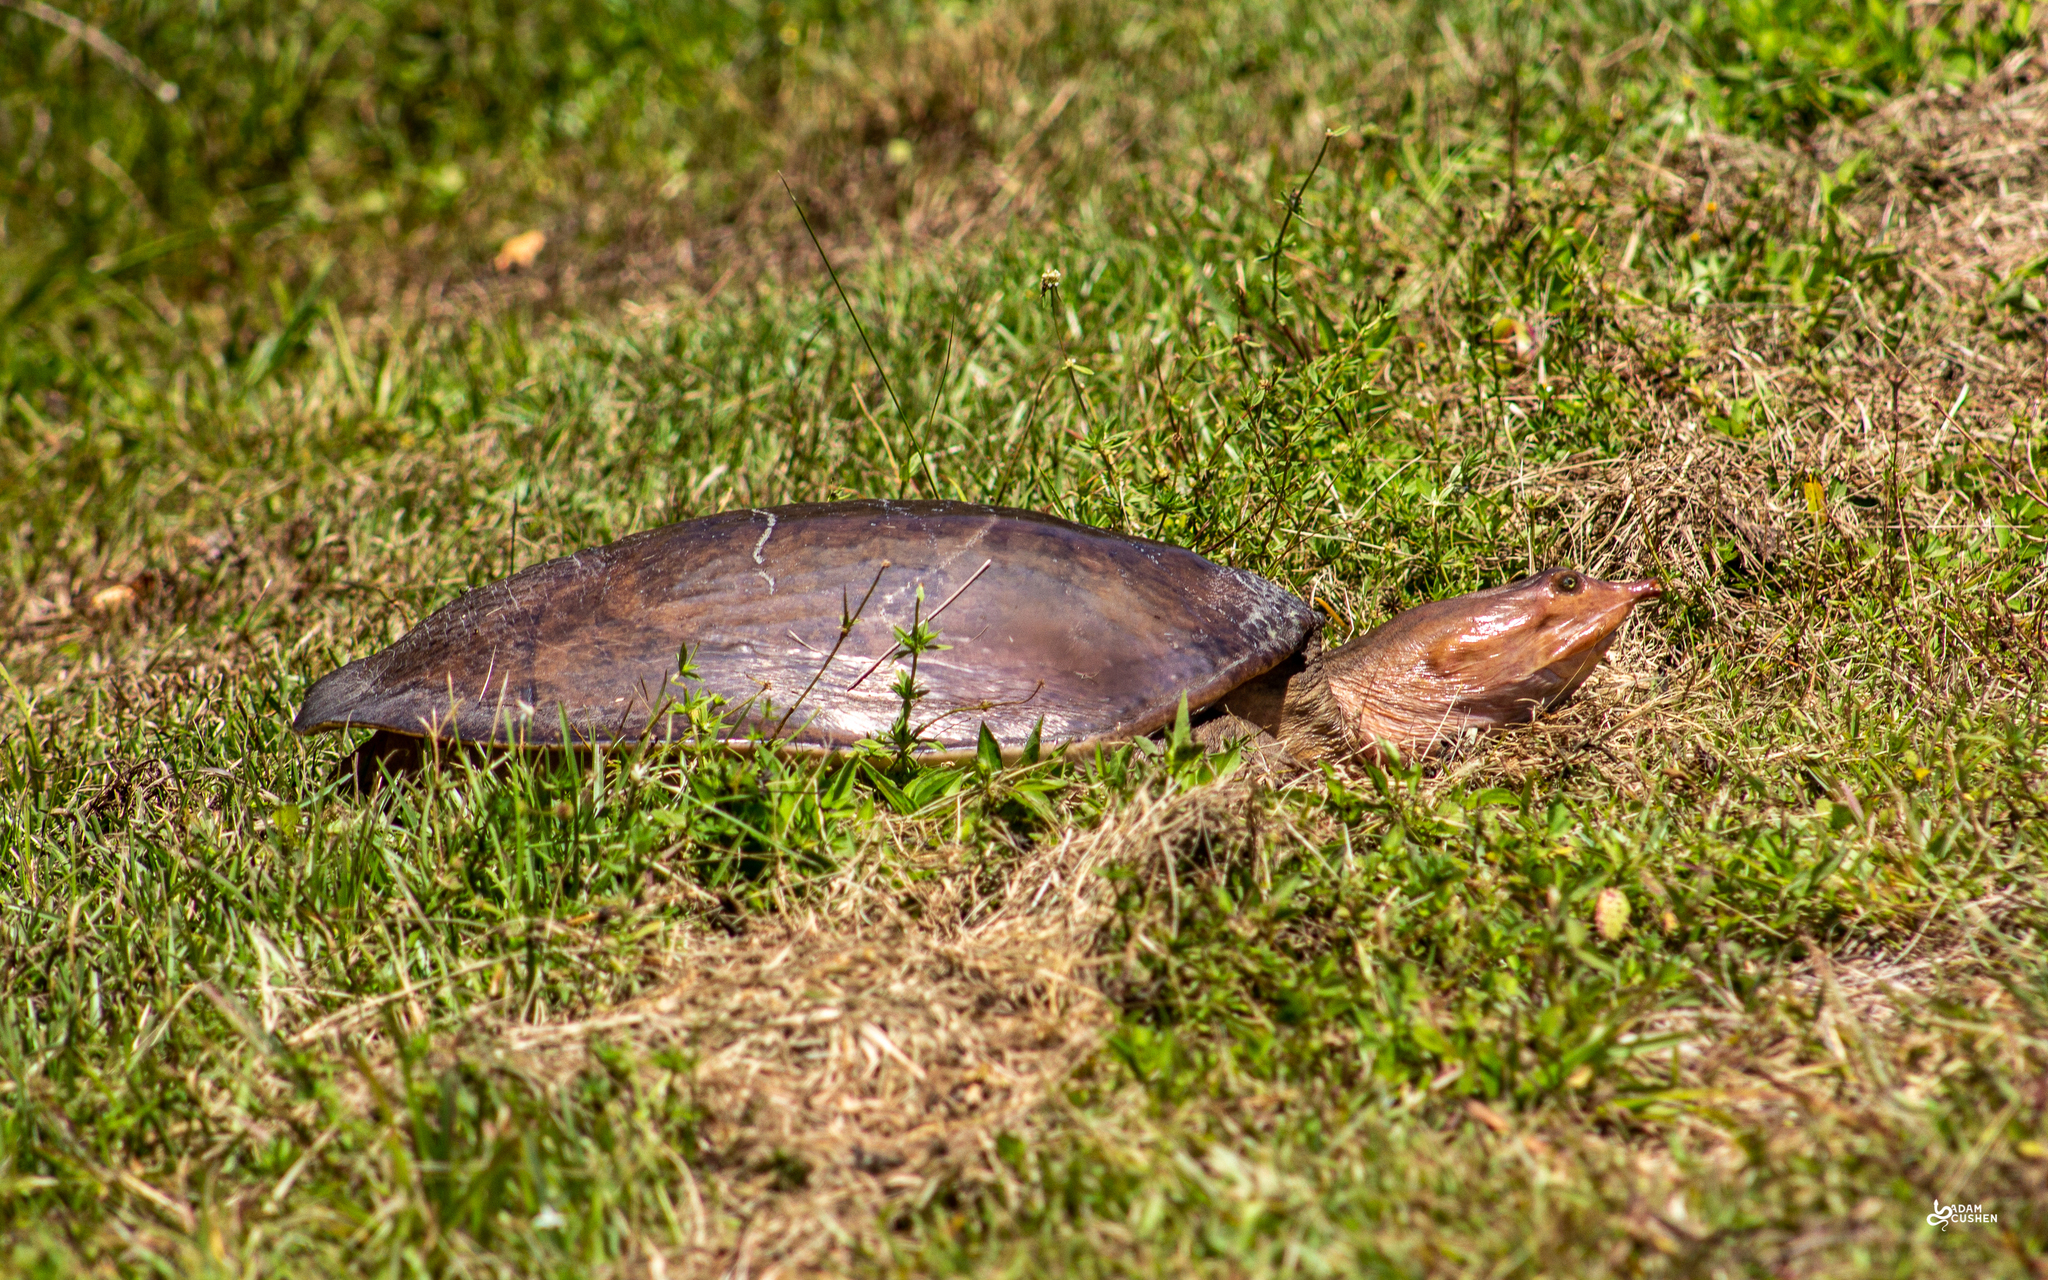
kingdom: Animalia
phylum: Chordata
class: Testudines
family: Trionychidae
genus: Apalone
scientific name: Apalone ferox
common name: Florida softshell turtle
